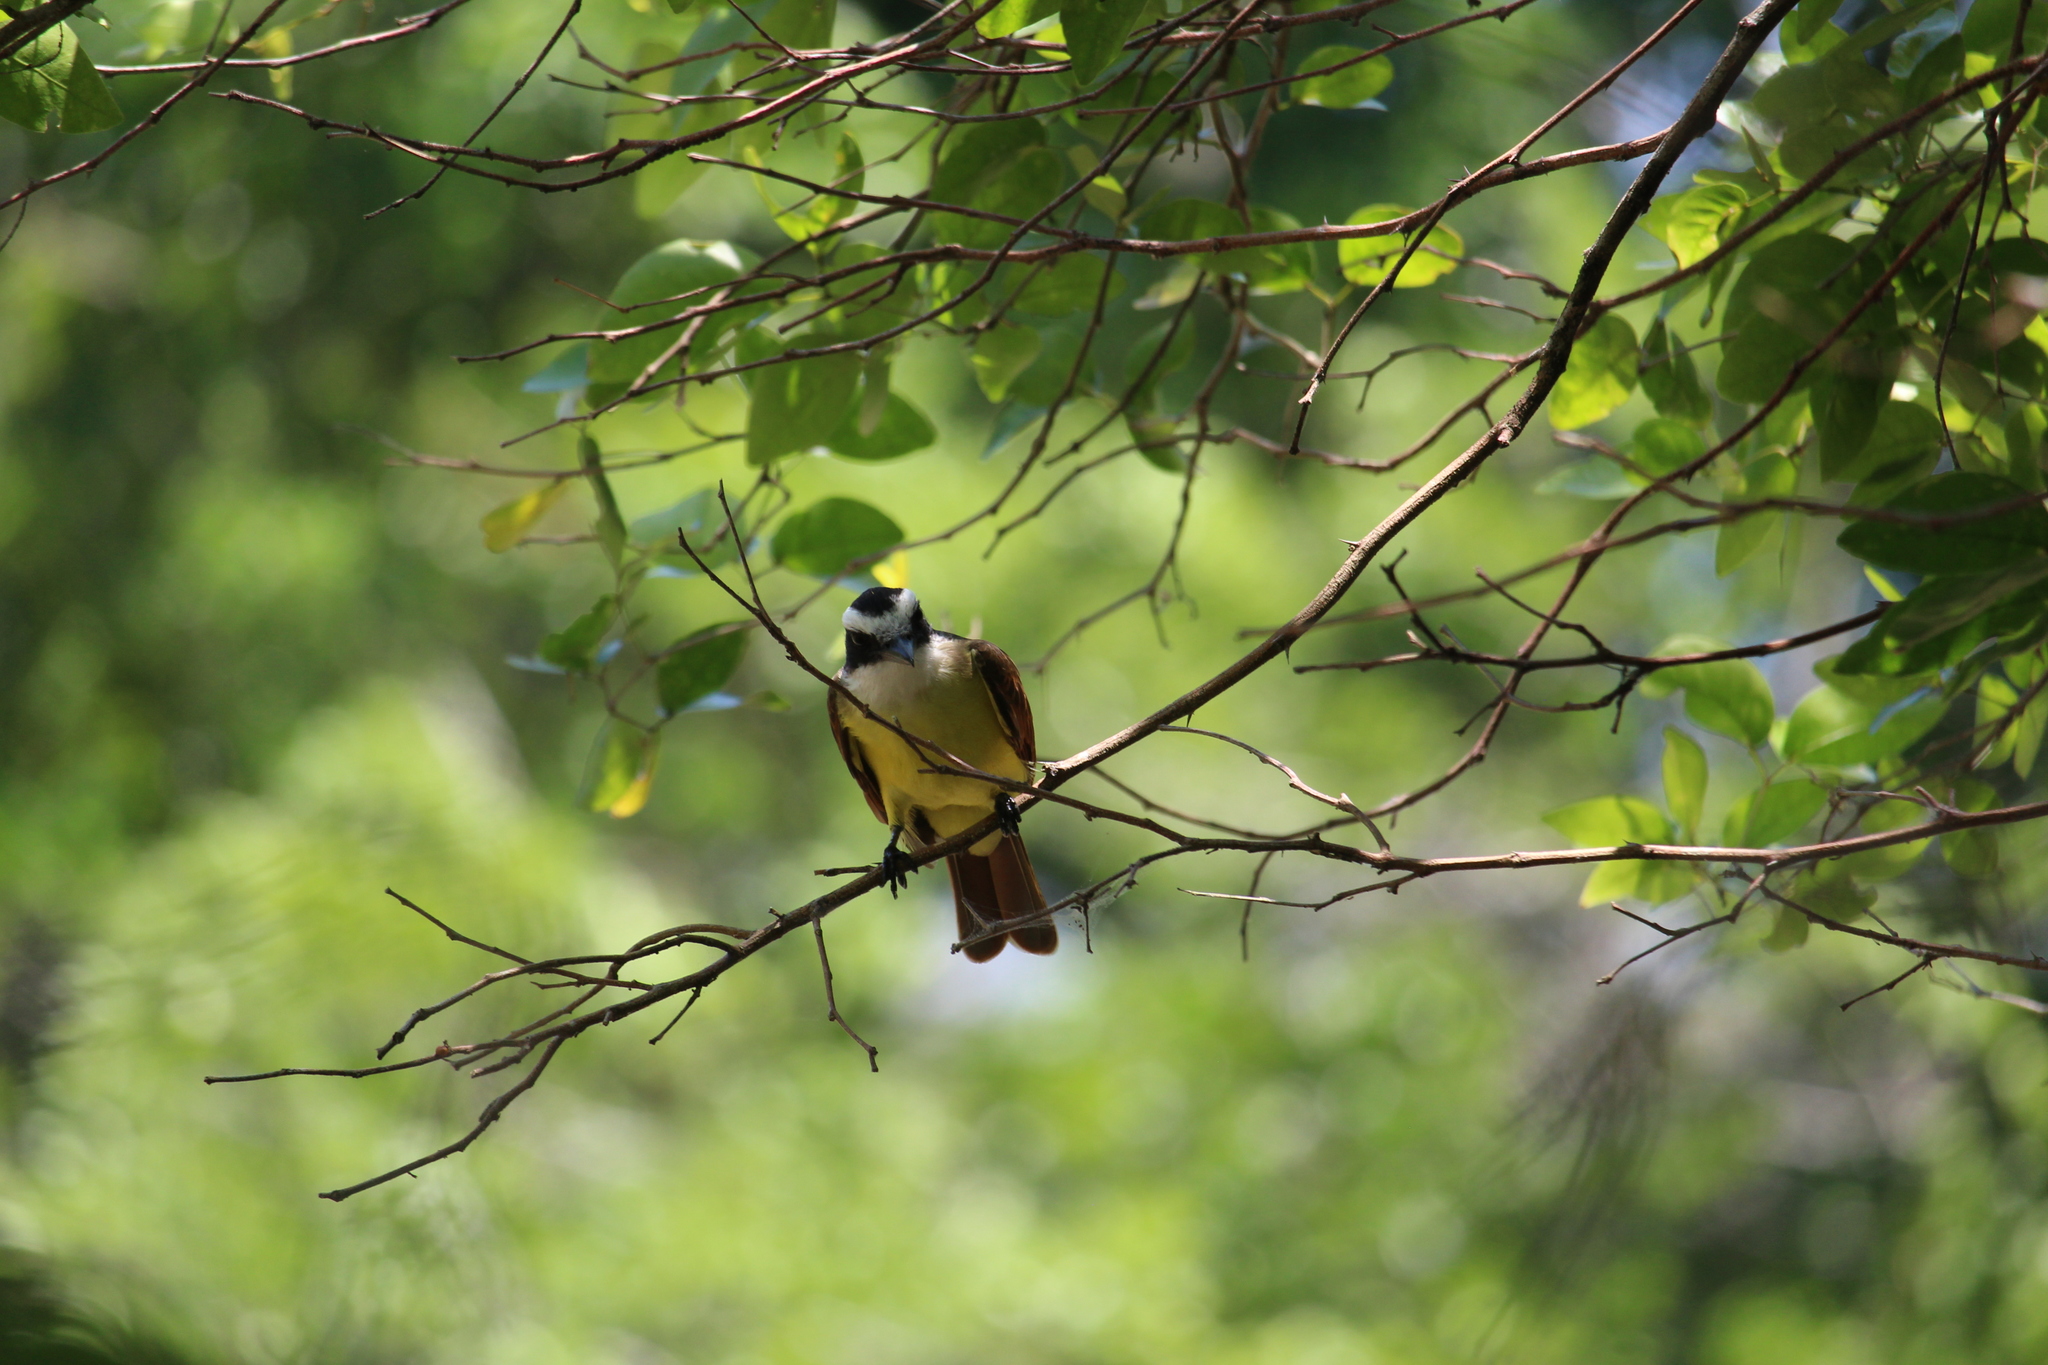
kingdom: Animalia
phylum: Chordata
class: Aves
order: Passeriformes
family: Tyrannidae
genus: Pitangus
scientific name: Pitangus sulphuratus
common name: Great kiskadee
